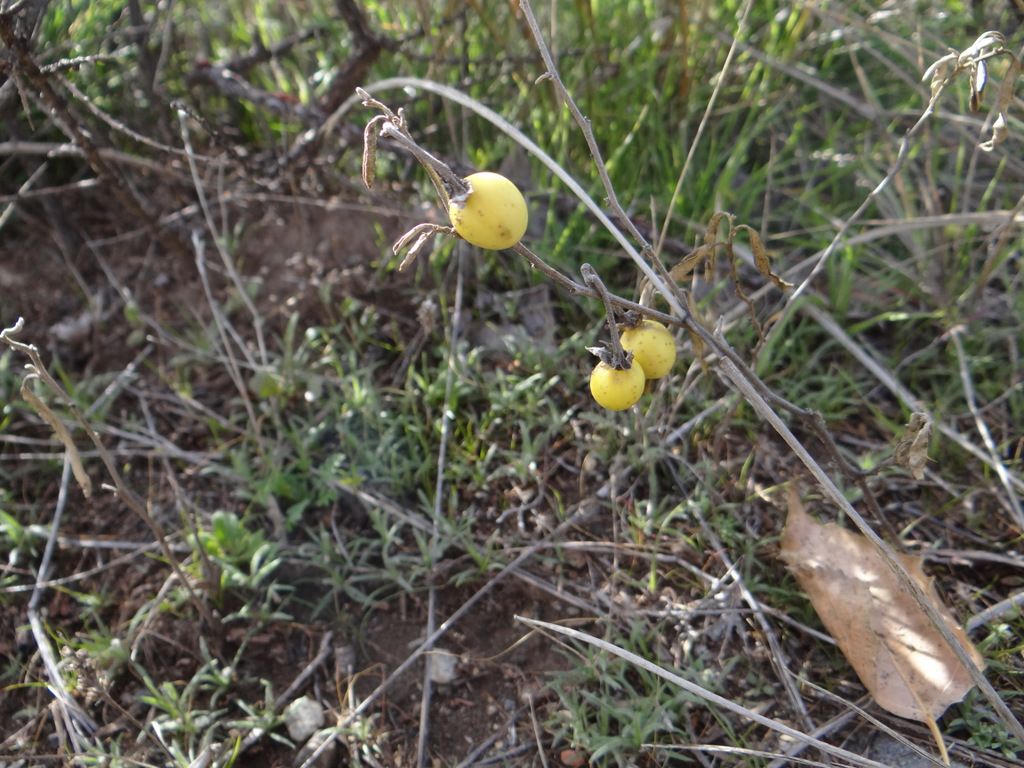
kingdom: Plantae
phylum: Tracheophyta
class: Magnoliopsida
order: Solanales
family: Solanaceae
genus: Solanum
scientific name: Solanum elaeagnifolium
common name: Silverleaf nightshade
